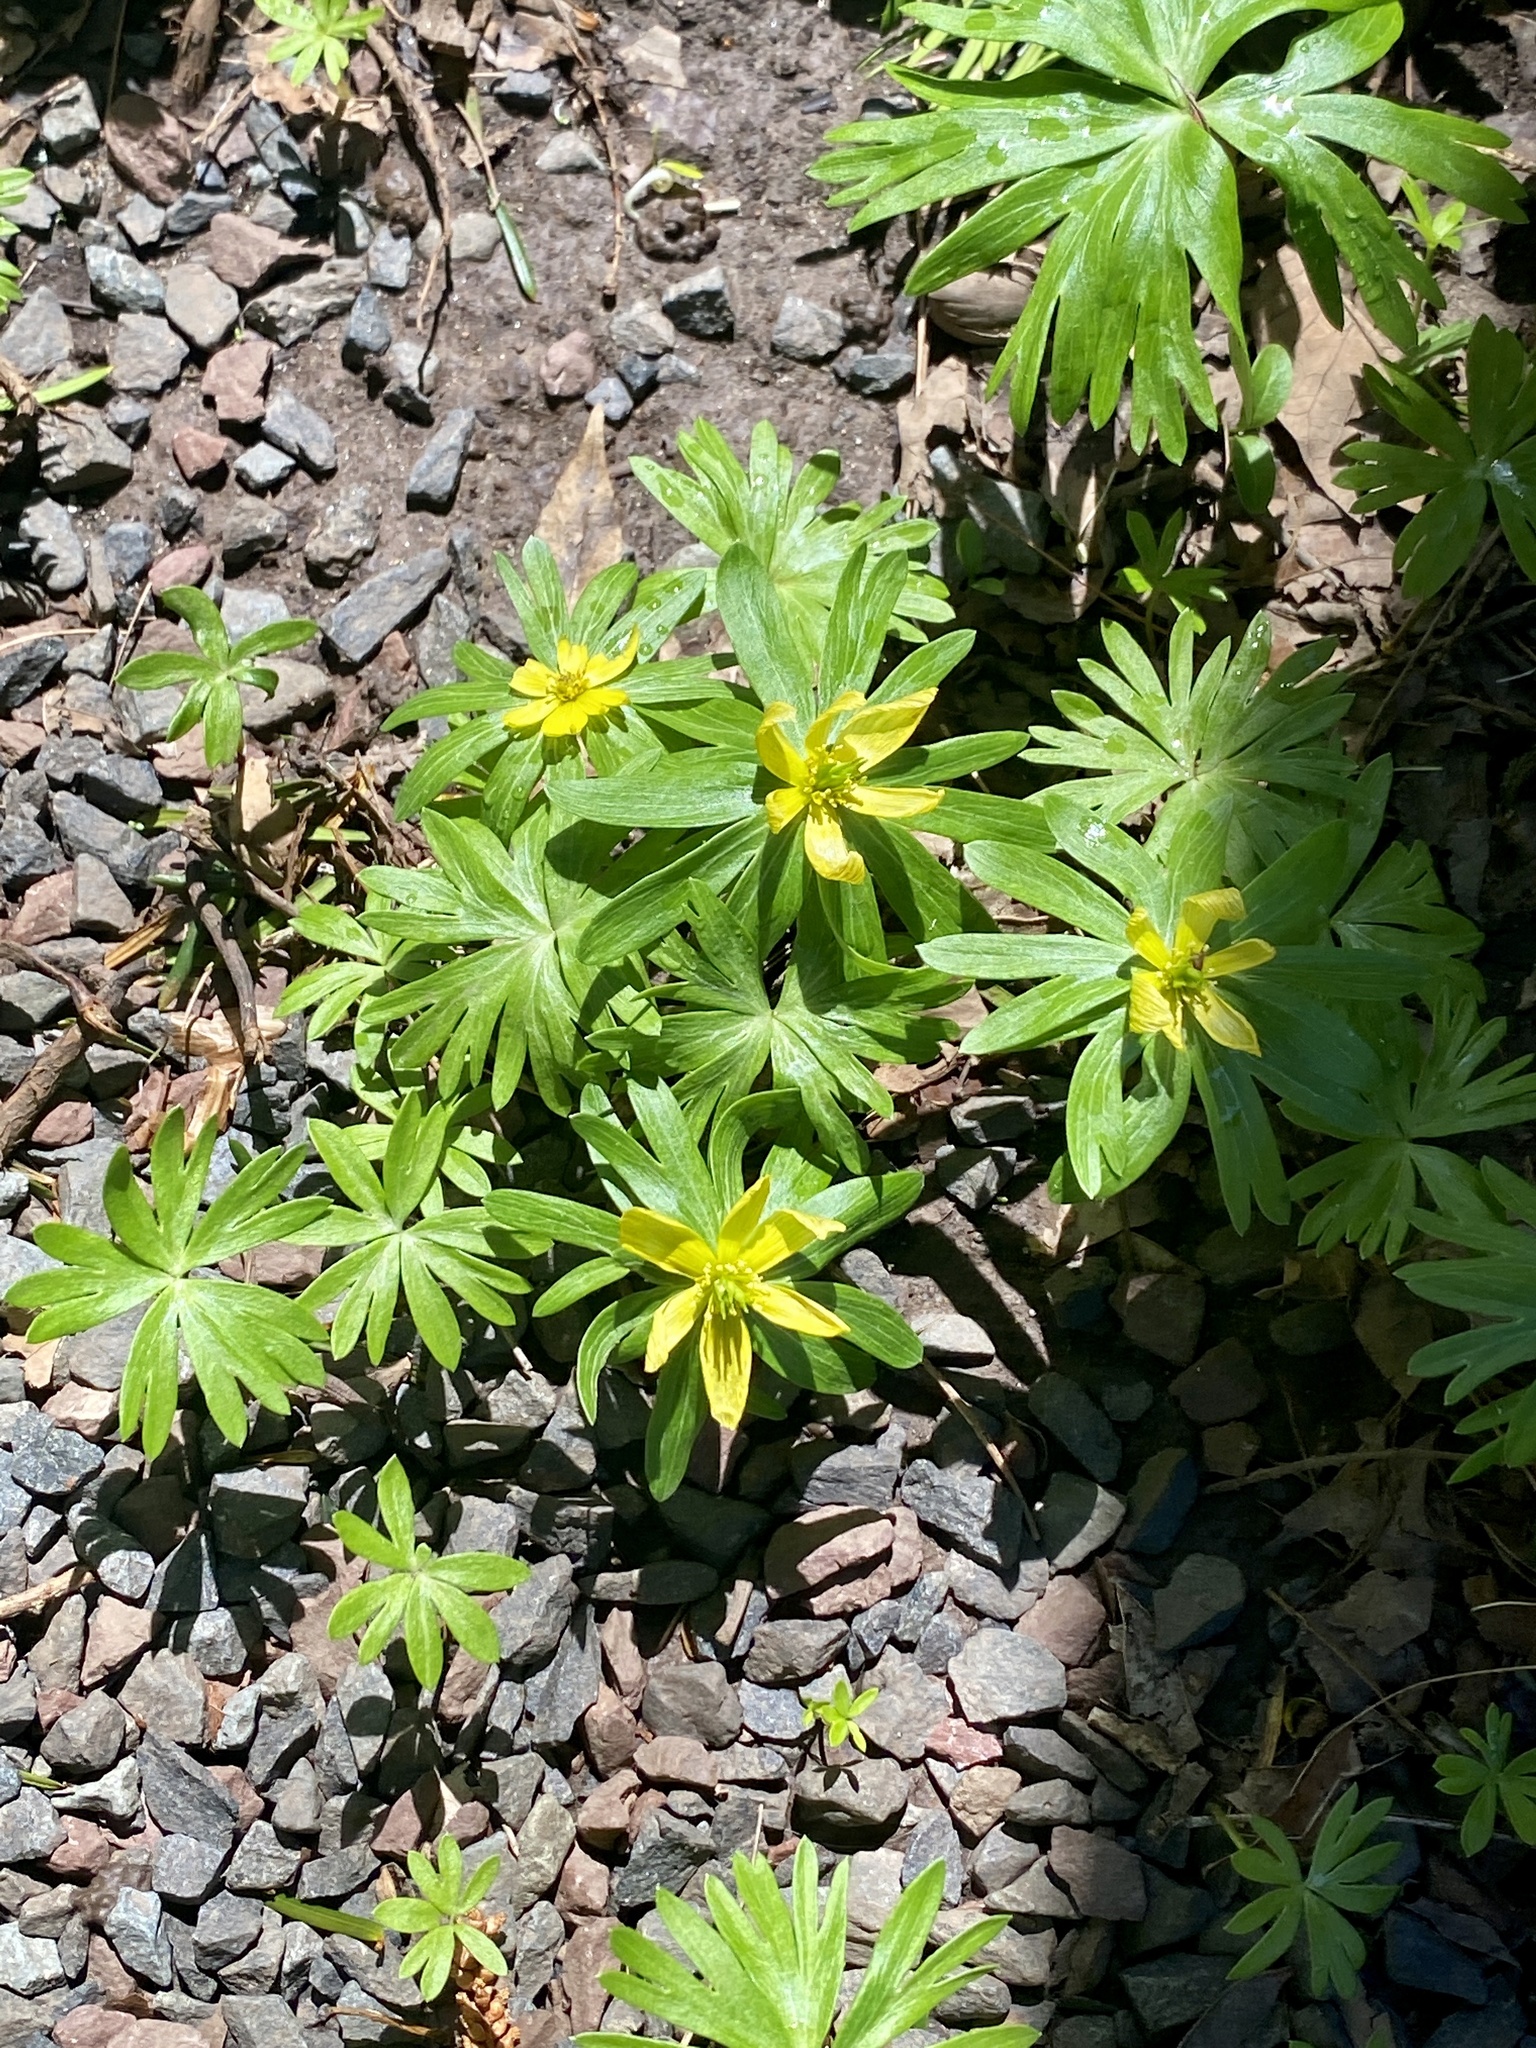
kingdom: Plantae
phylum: Tracheophyta
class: Magnoliopsida
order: Ranunculales
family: Ranunculaceae
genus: Eranthis
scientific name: Eranthis hyemalis
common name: Winter aconite
